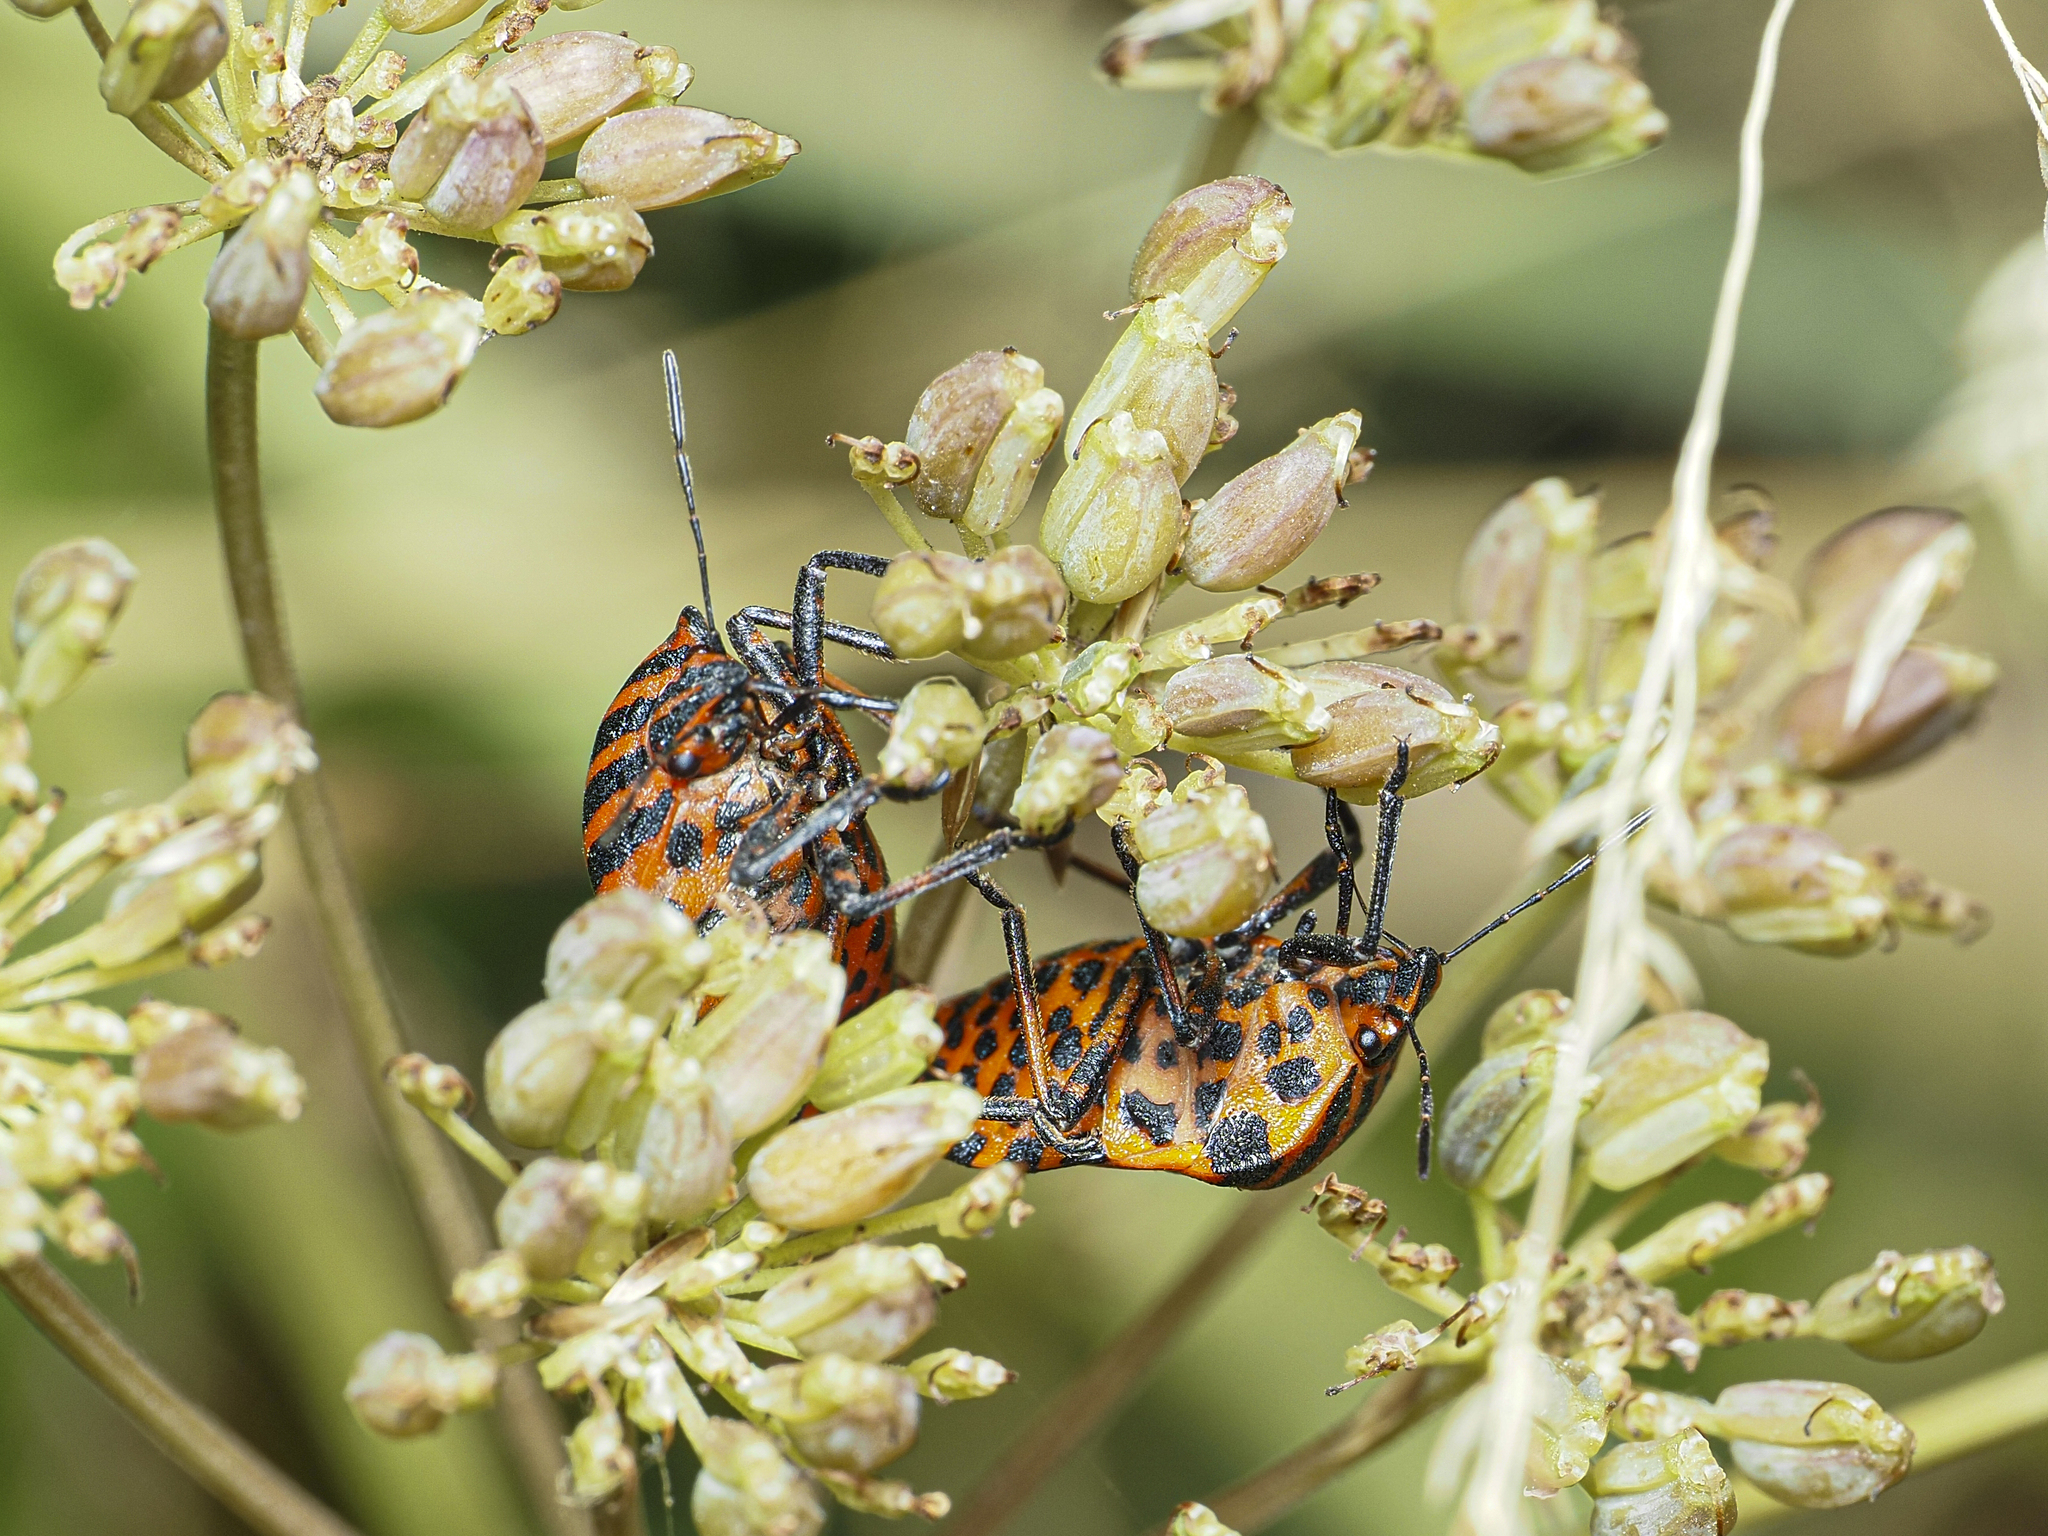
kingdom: Animalia
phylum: Arthropoda
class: Insecta
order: Hemiptera
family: Pentatomidae
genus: Graphosoma
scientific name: Graphosoma italicum
